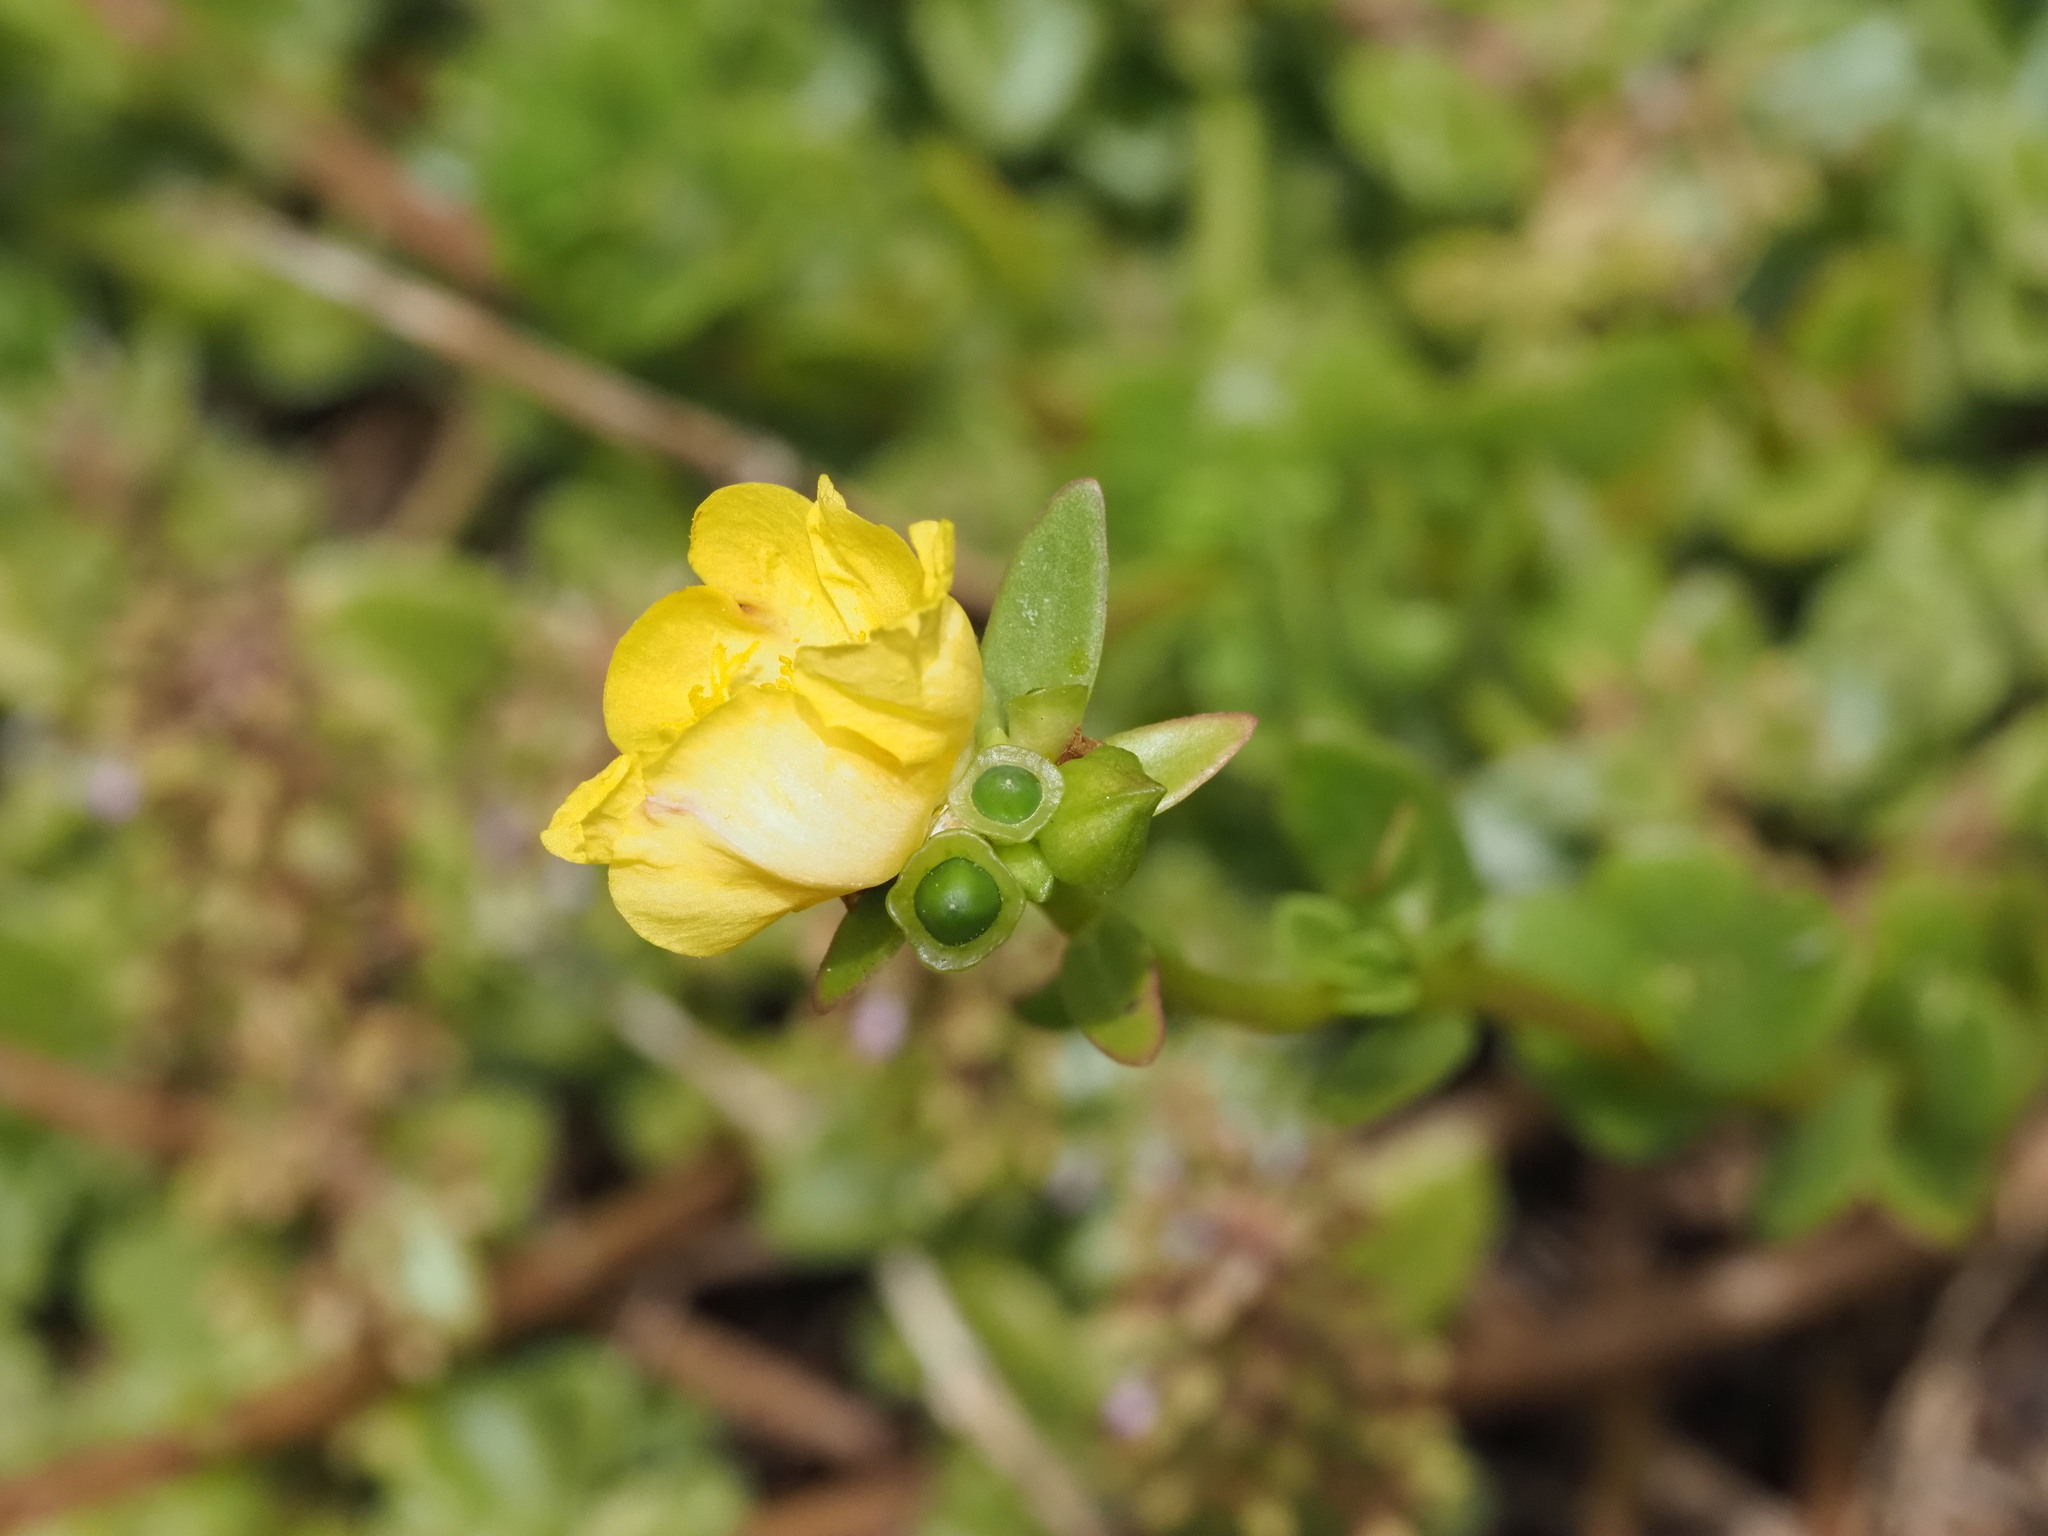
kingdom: Plantae
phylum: Tracheophyta
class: Magnoliopsida
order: Caryophyllales
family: Portulacaceae
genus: Portulaca
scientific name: Portulaca umbraticola
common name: Wingpod purslane
